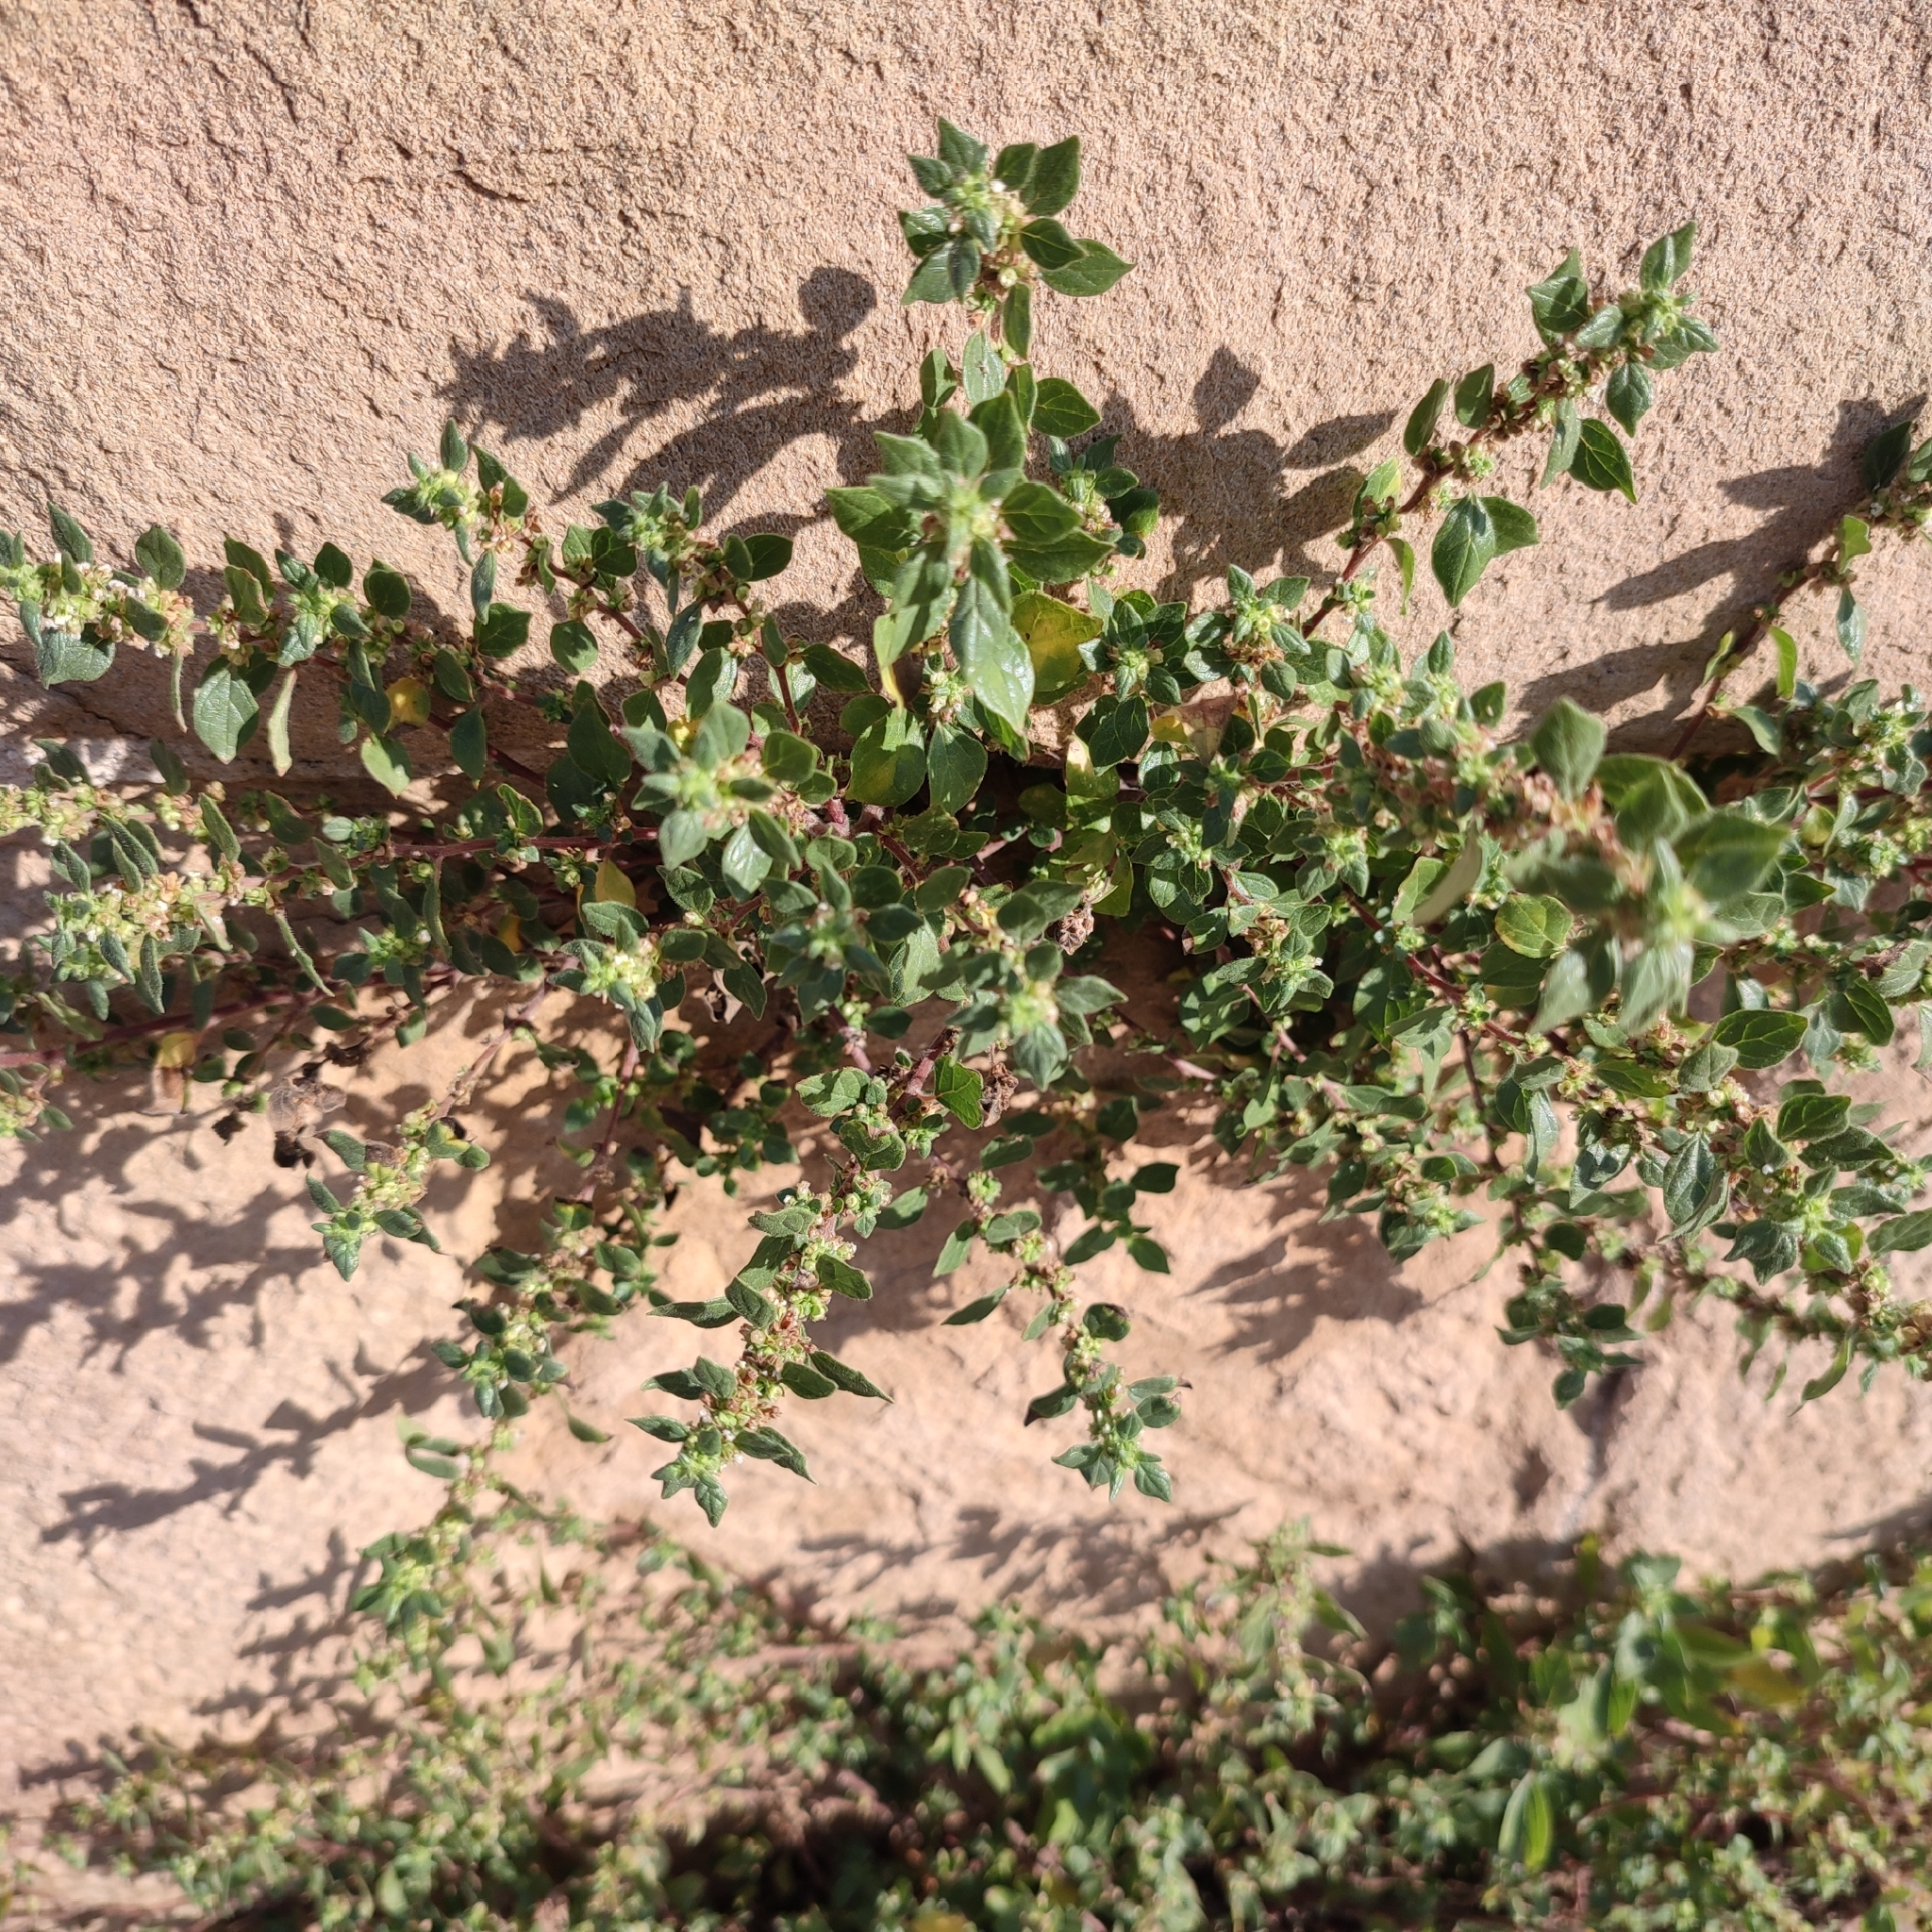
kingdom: Plantae
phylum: Tracheophyta
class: Magnoliopsida
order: Rosales
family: Urticaceae
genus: Parietaria
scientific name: Parietaria judaica
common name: Pellitory-of-the-wall
